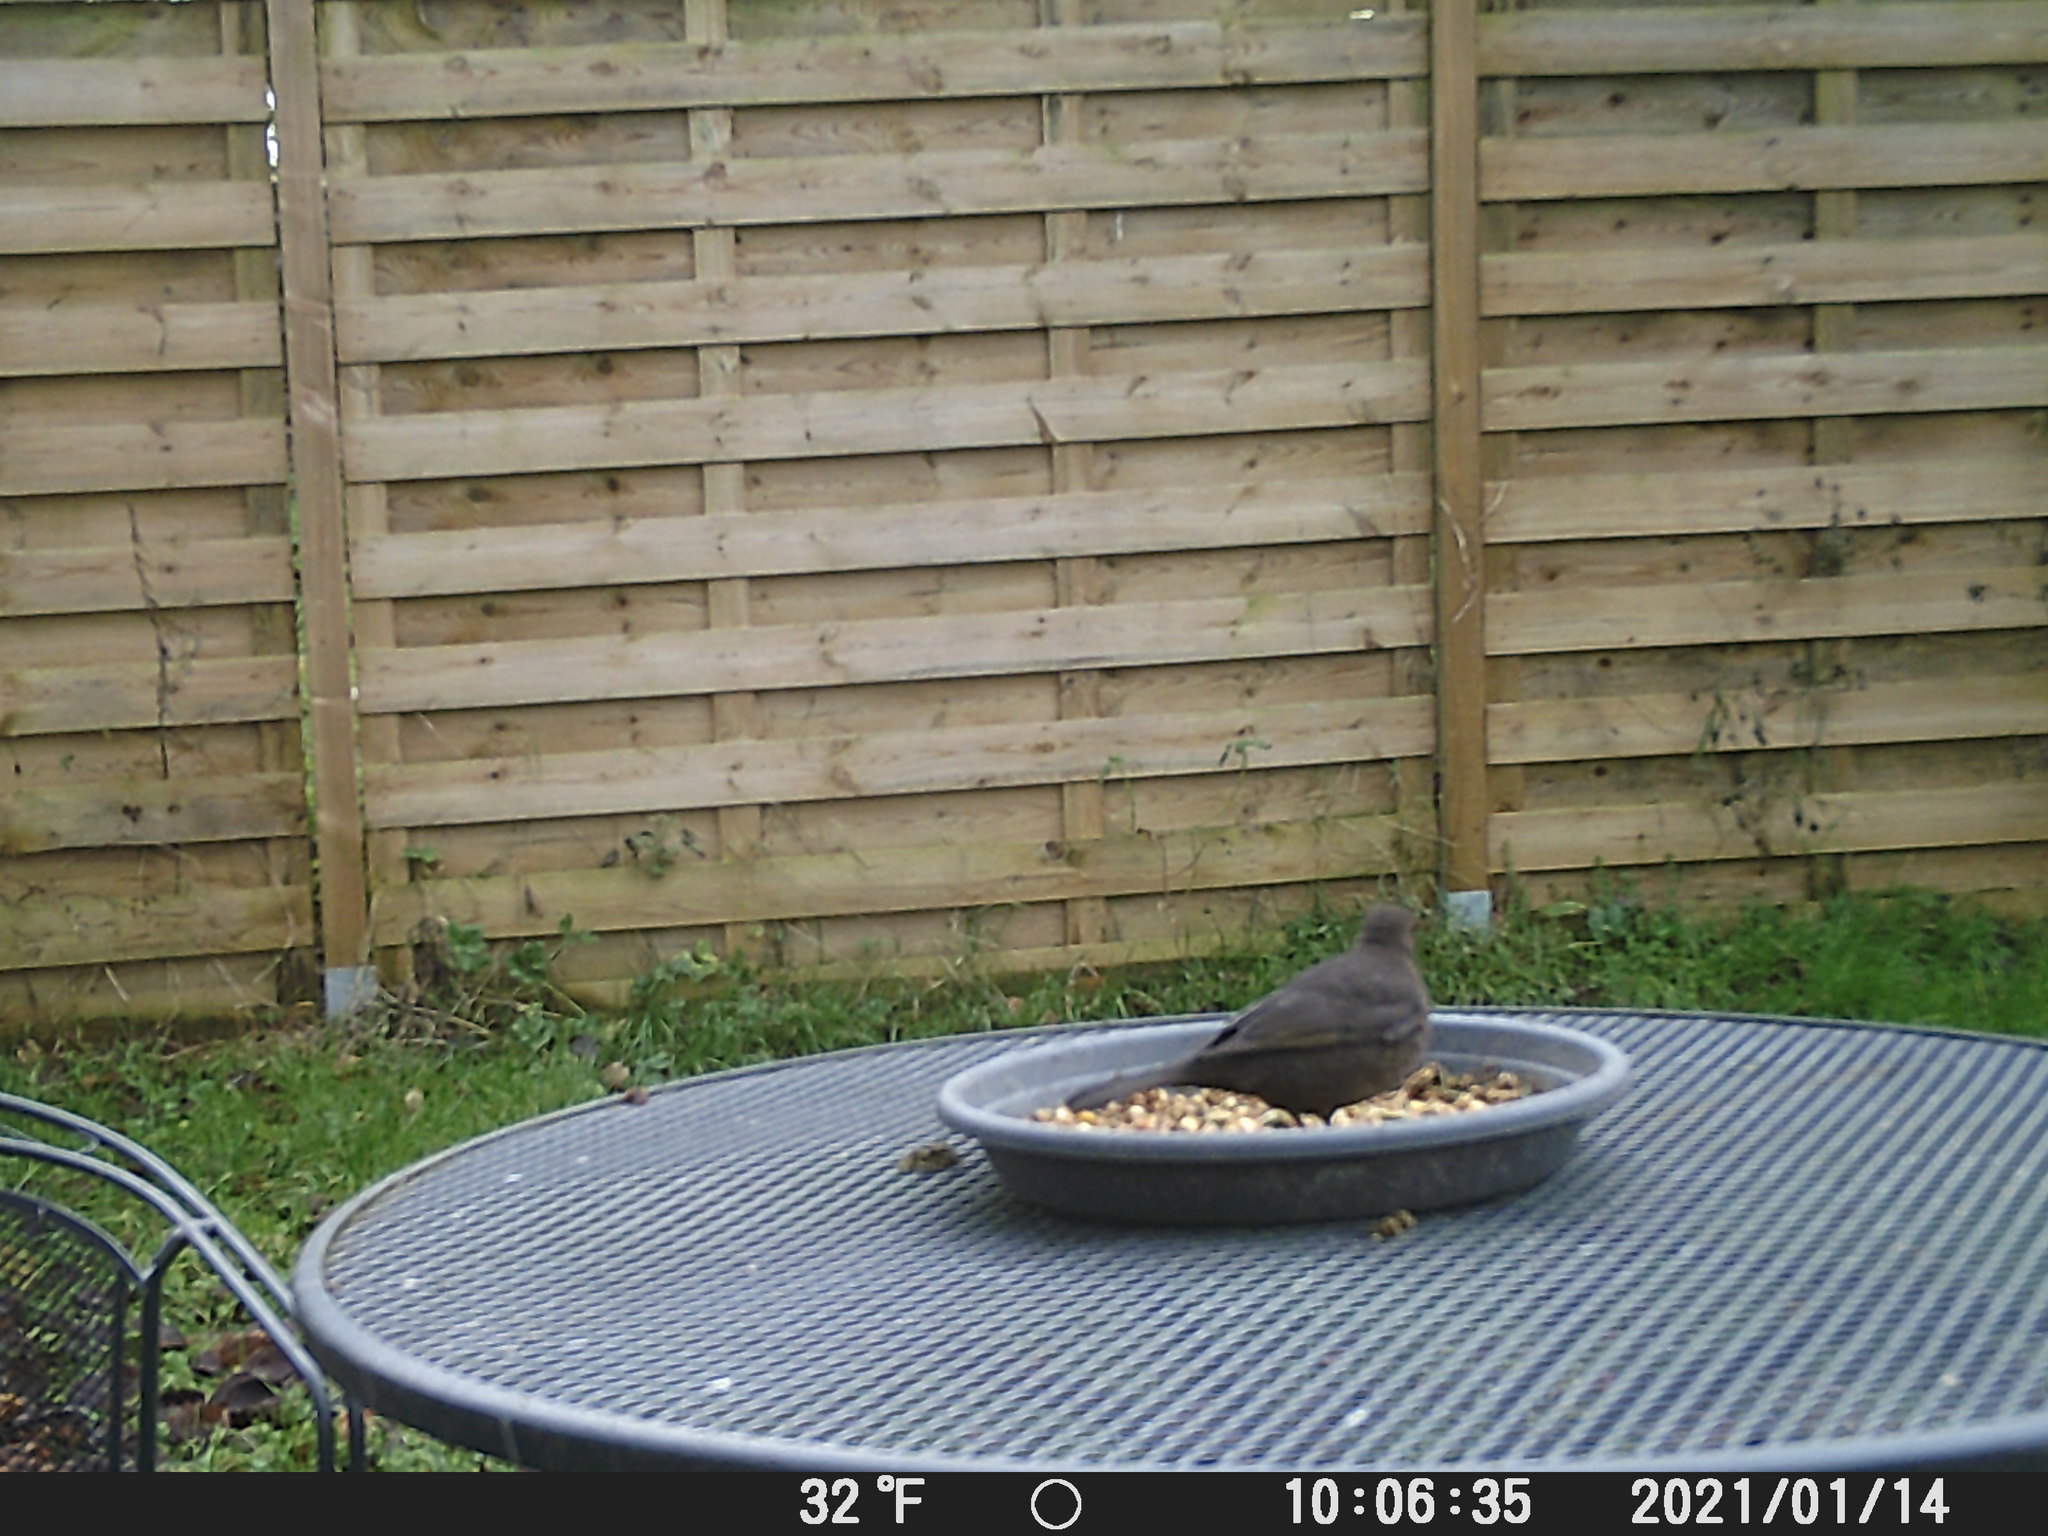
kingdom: Animalia
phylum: Chordata
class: Aves
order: Passeriformes
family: Turdidae
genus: Turdus
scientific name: Turdus merula
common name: Common blackbird
